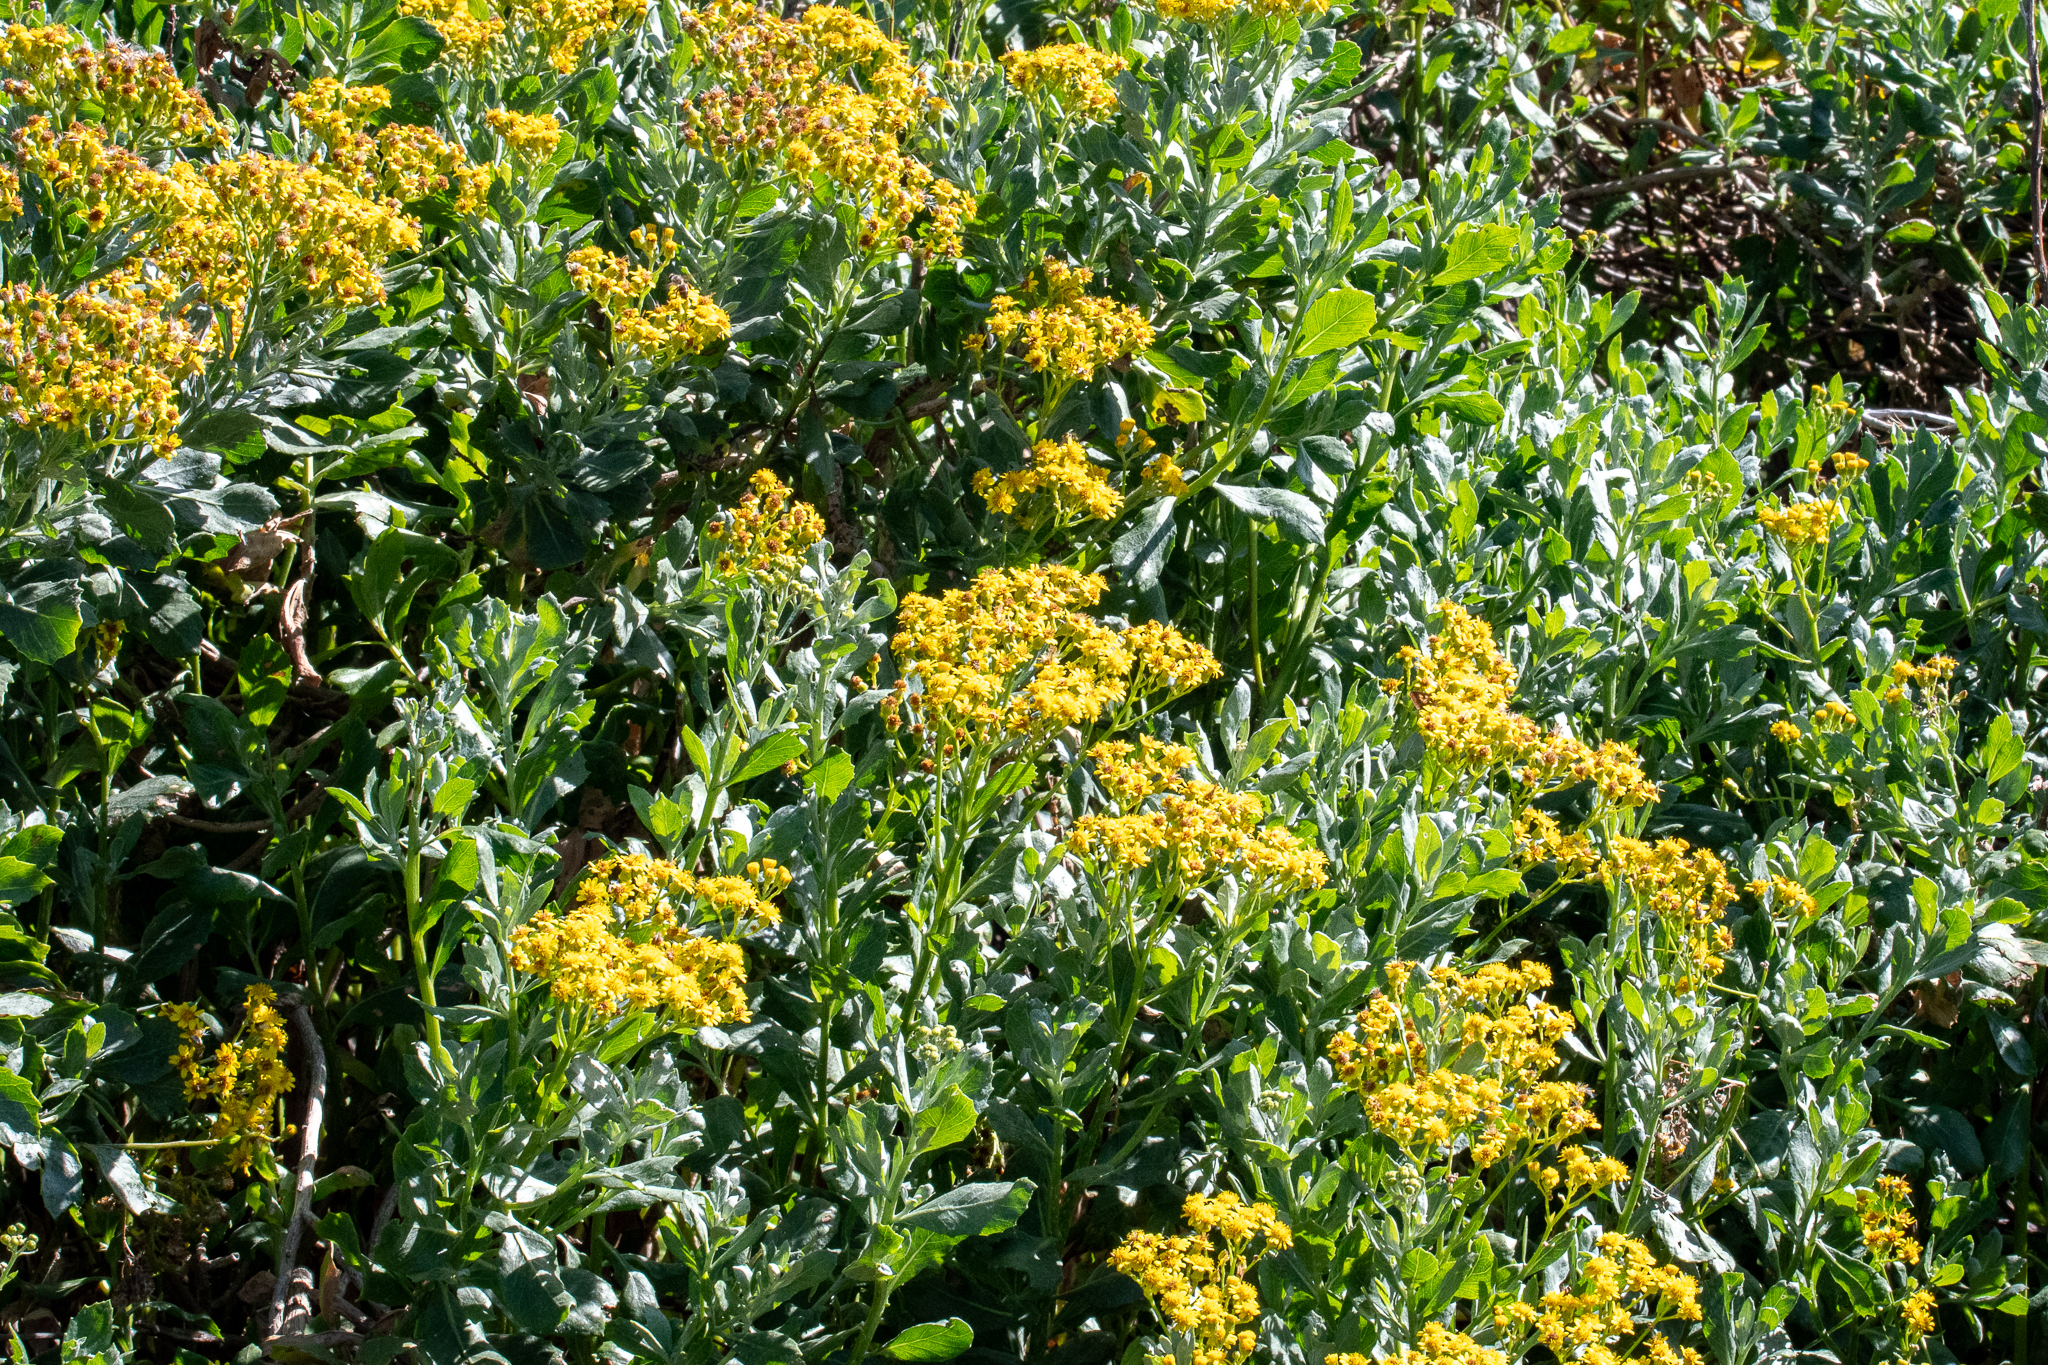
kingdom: Plantae
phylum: Tracheophyta
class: Magnoliopsida
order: Asterales
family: Asteraceae
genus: Senecio
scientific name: Senecio halimifolius
